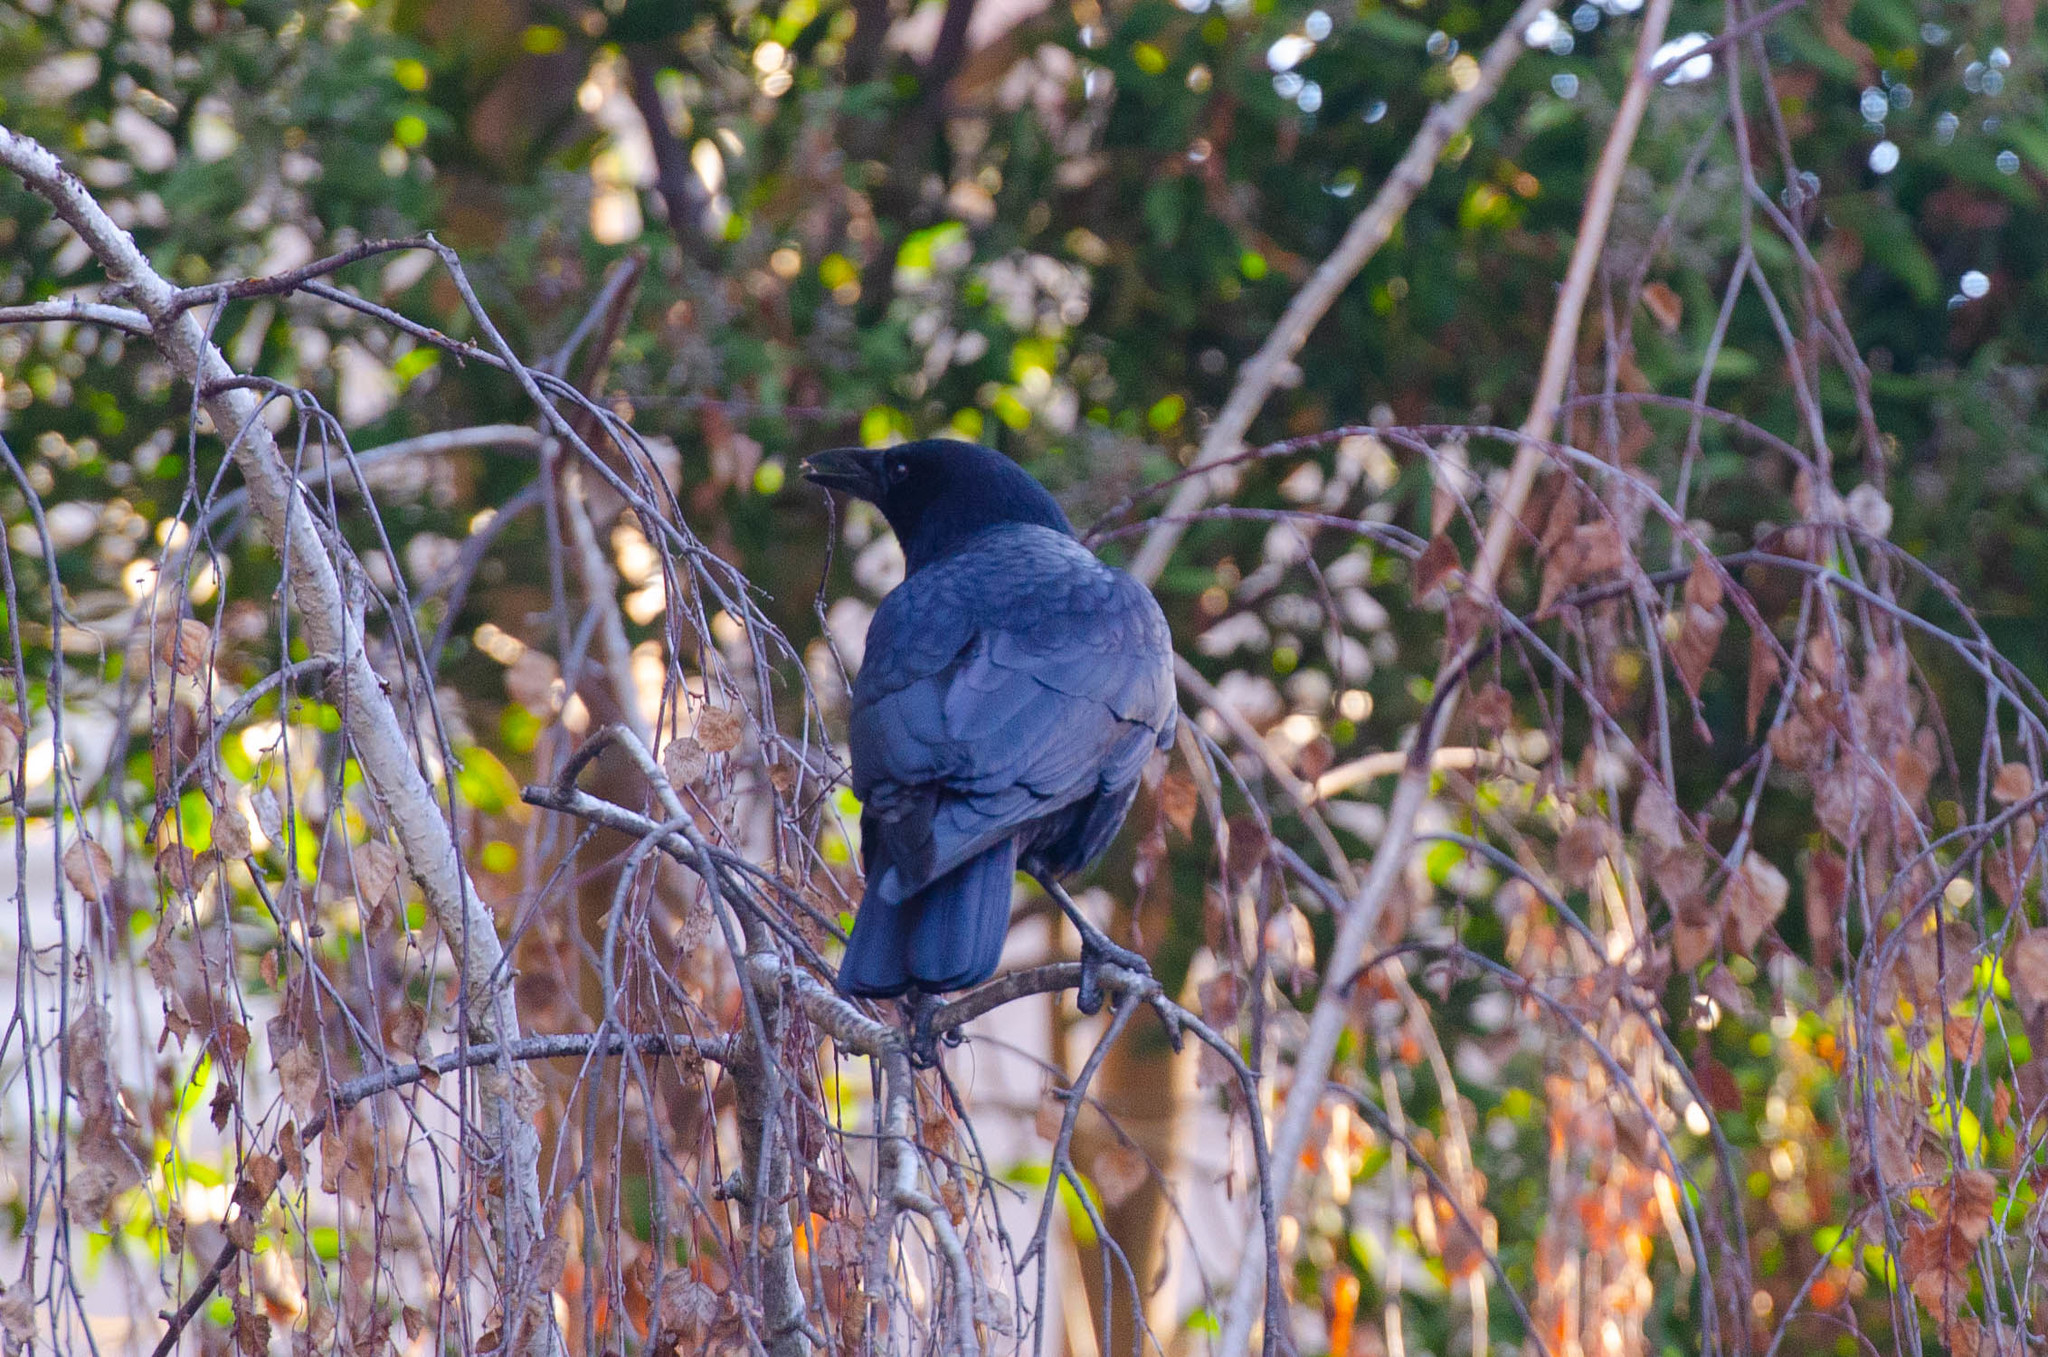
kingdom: Animalia
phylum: Chordata
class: Aves
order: Passeriformes
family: Corvidae
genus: Corvus
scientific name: Corvus brachyrhynchos
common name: American crow
